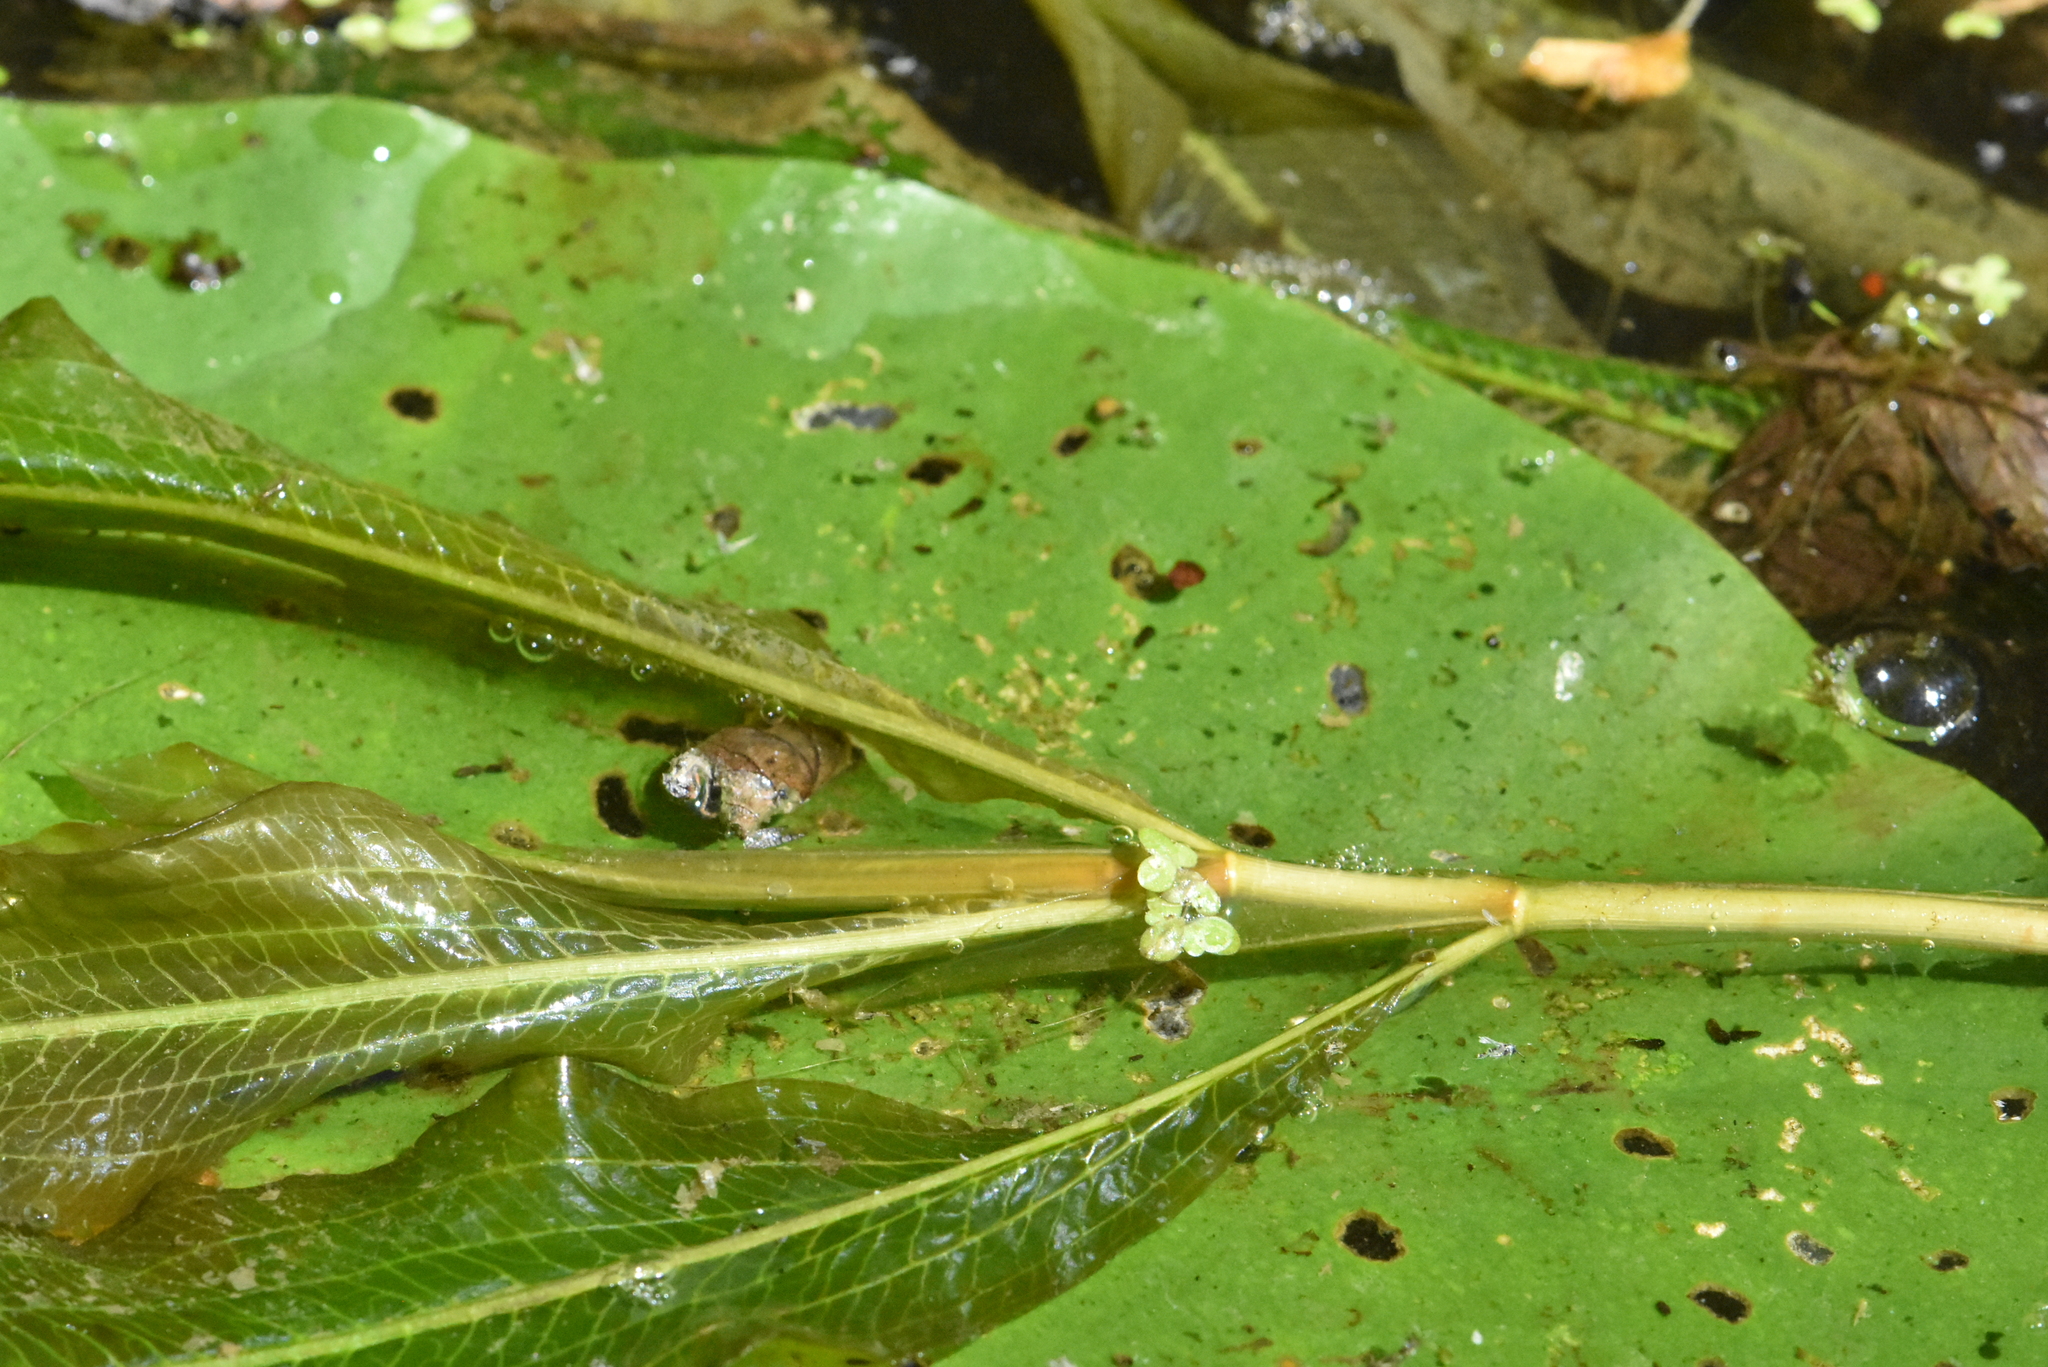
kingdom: Plantae
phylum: Tracheophyta
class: Liliopsida
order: Alismatales
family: Potamogetonaceae
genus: Potamogeton
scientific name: Potamogeton lucens
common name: Shining pondweed
